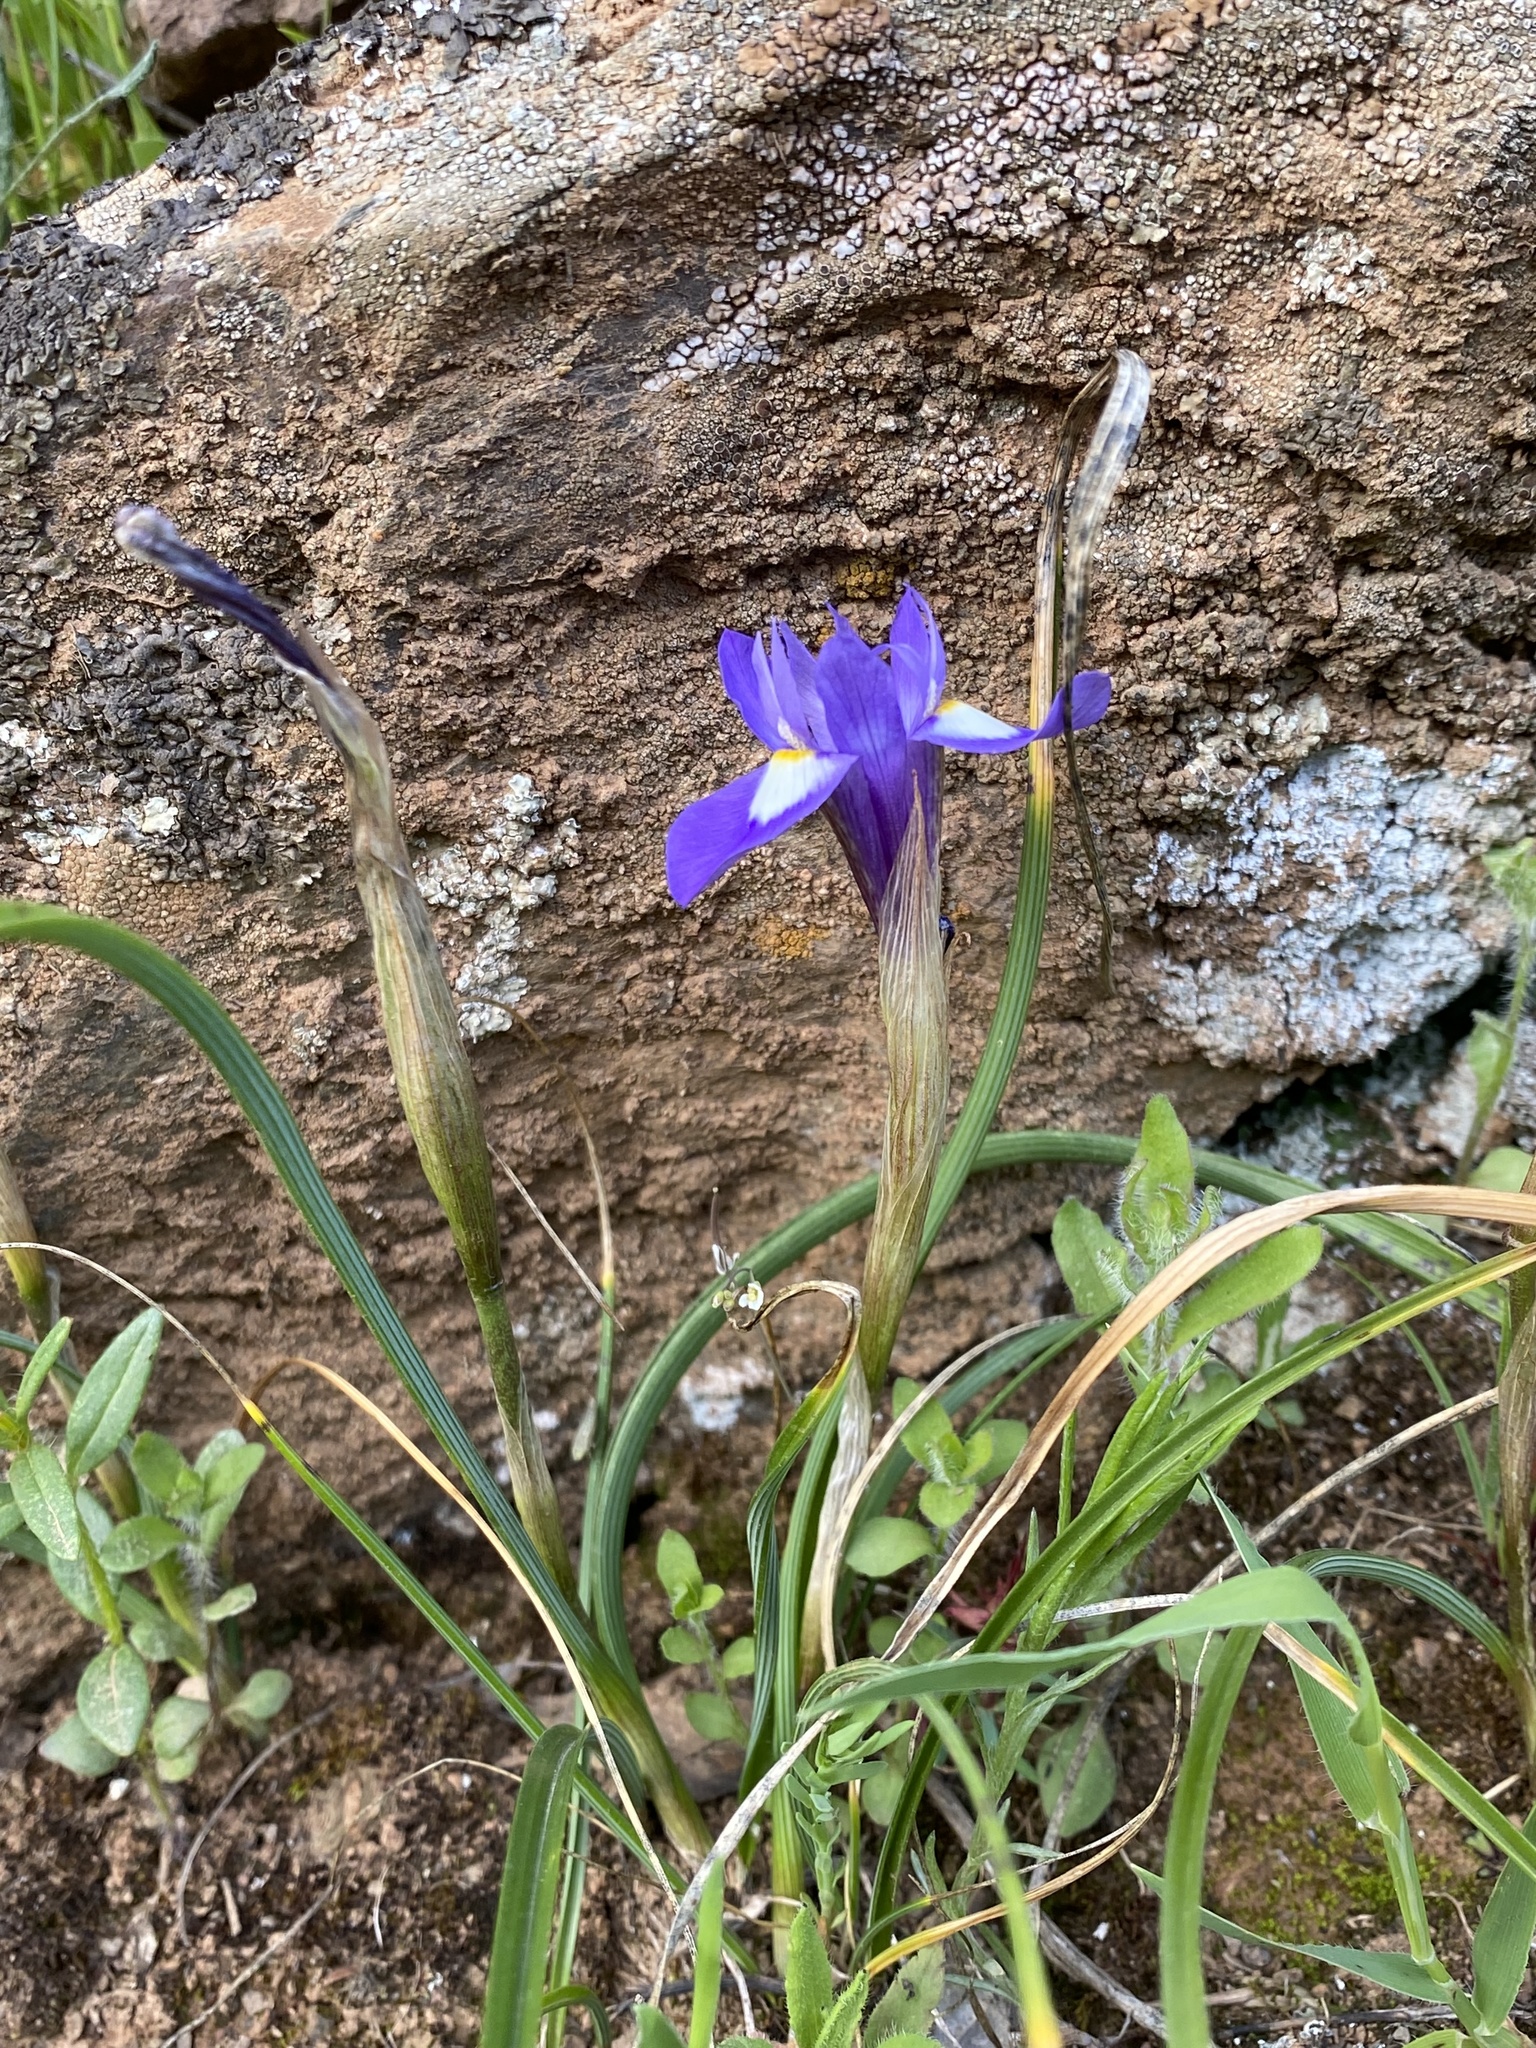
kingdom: Plantae
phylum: Tracheophyta
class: Liliopsida
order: Asparagales
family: Iridaceae
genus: Moraea
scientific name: Moraea sisyrinchium
